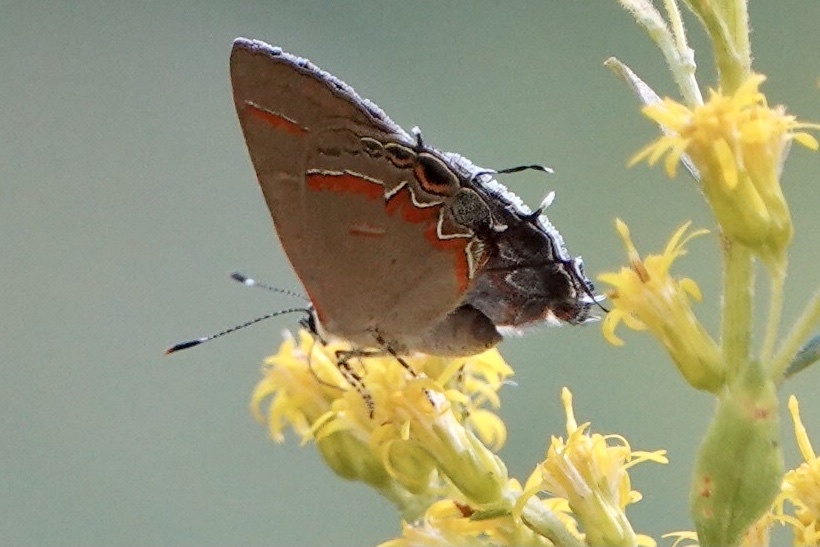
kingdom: Animalia
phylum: Arthropoda
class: Insecta
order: Lepidoptera
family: Lycaenidae
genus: Calycopis
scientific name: Calycopis cecrops
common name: Red-banded hairstreak
